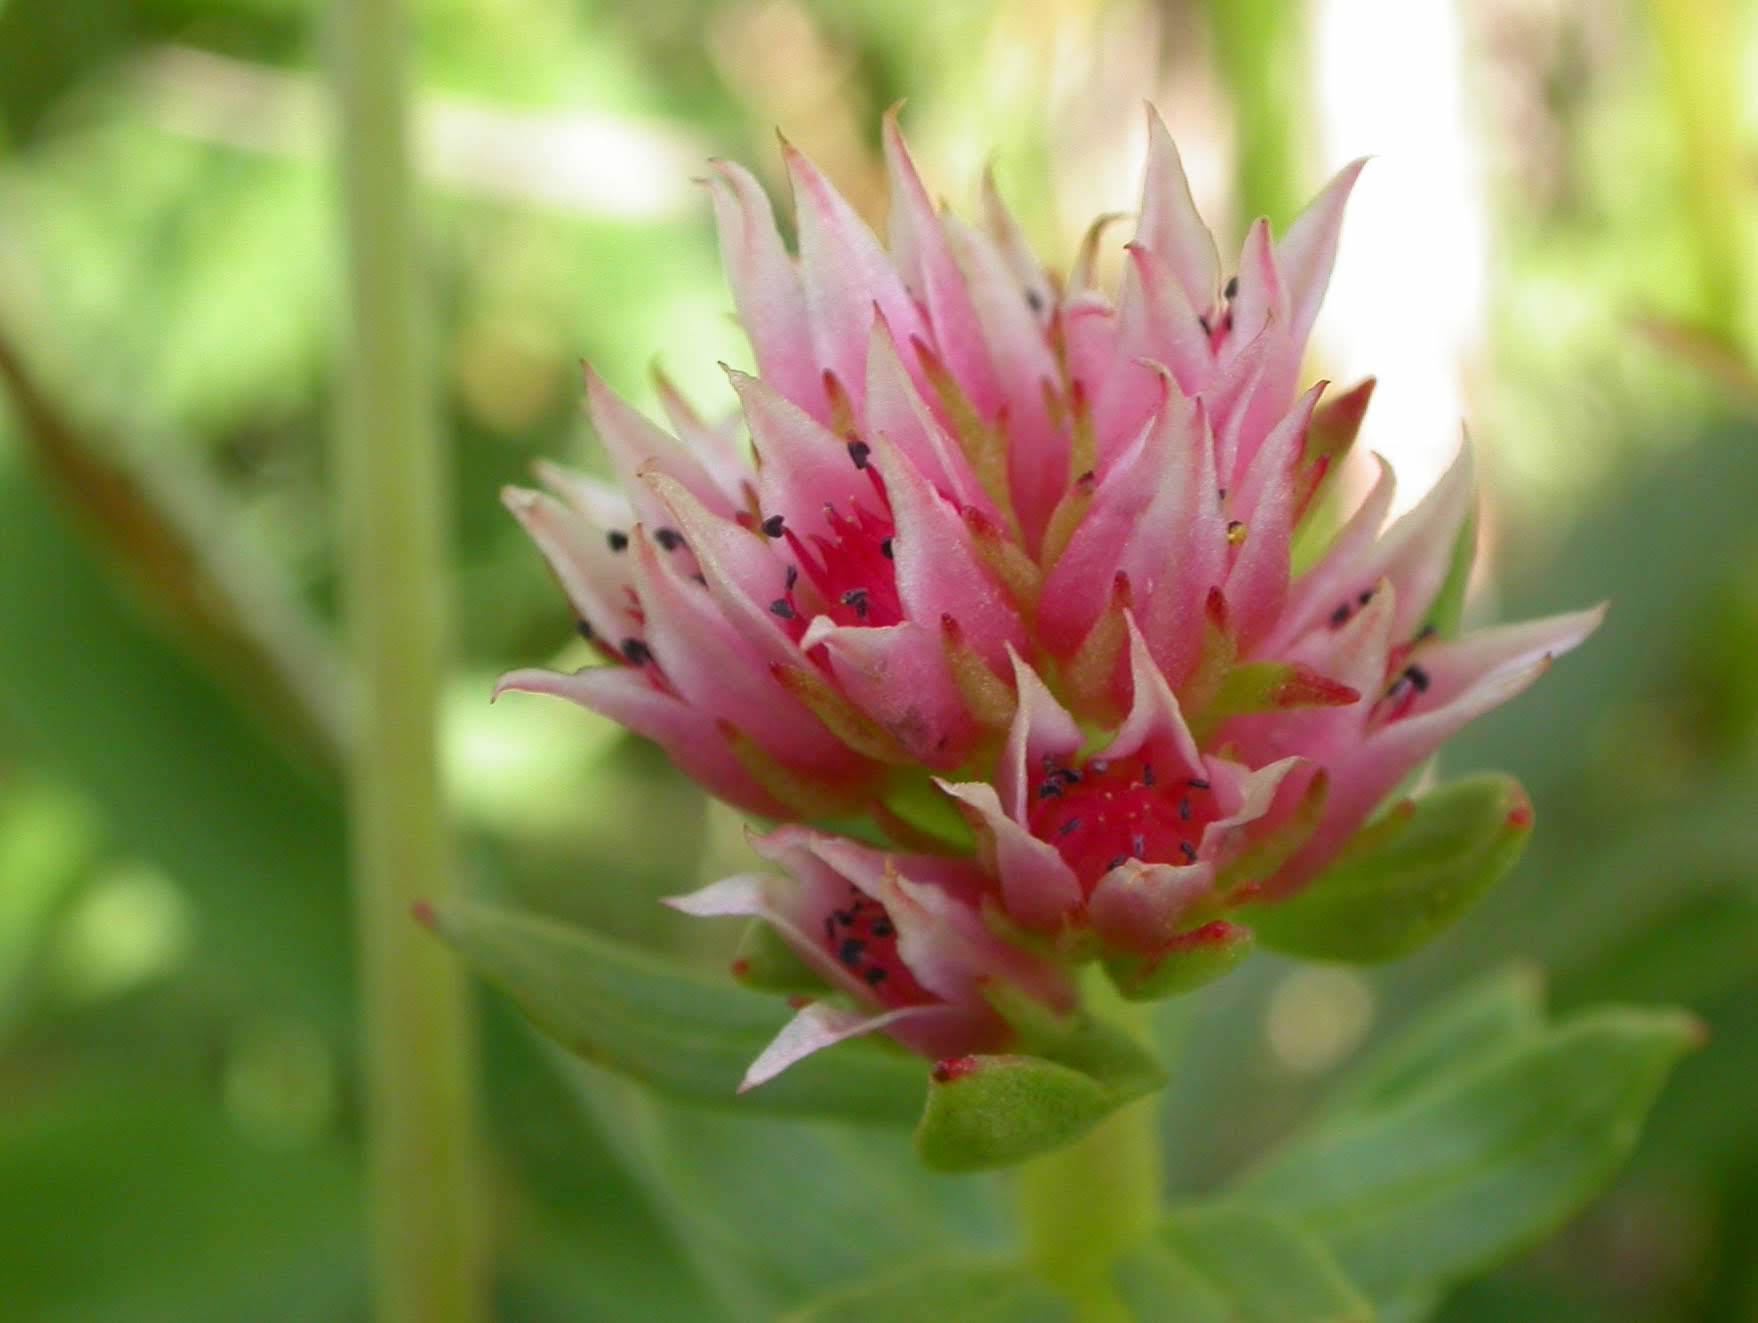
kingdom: Plantae
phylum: Tracheophyta
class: Magnoliopsida
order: Saxifragales
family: Crassulaceae
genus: Rhodiola
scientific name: Rhodiola rhodantha
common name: Red orpine
